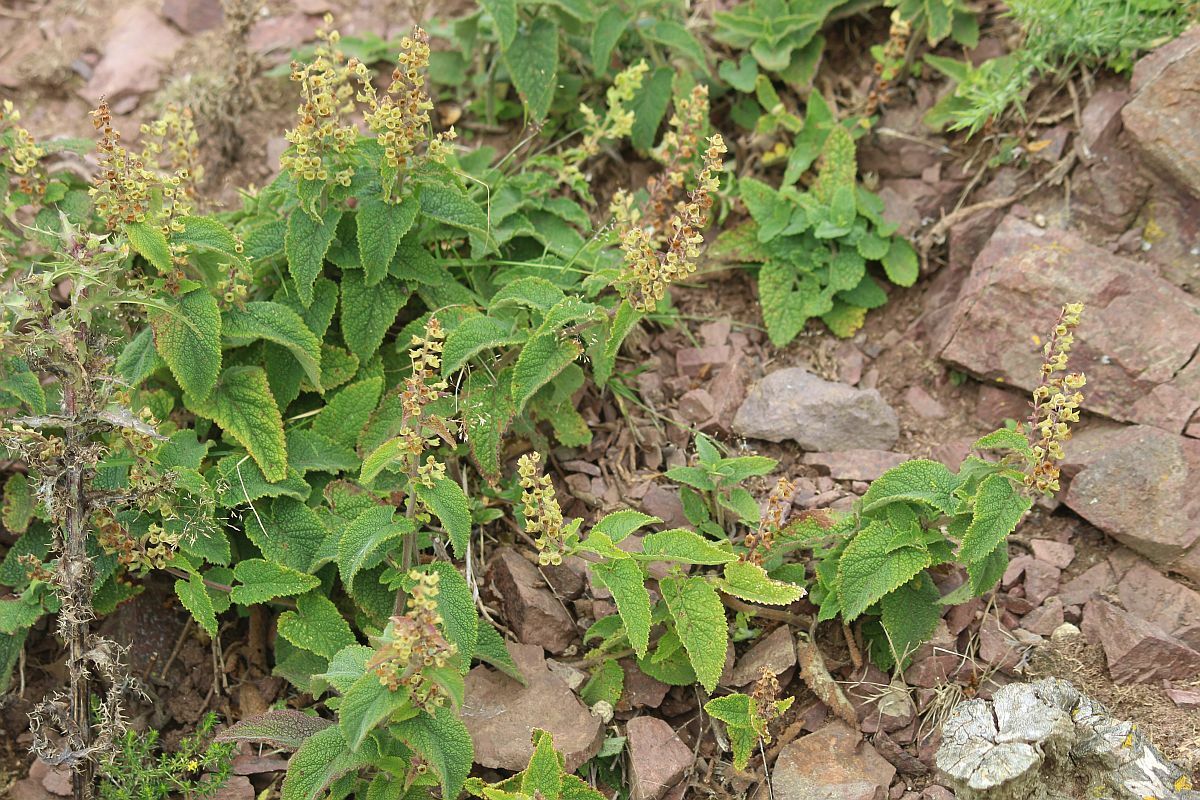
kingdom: Plantae
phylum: Tracheophyta
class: Magnoliopsida
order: Lamiales
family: Lamiaceae
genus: Teucrium
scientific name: Teucrium scorodonia
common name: Woodland germander
